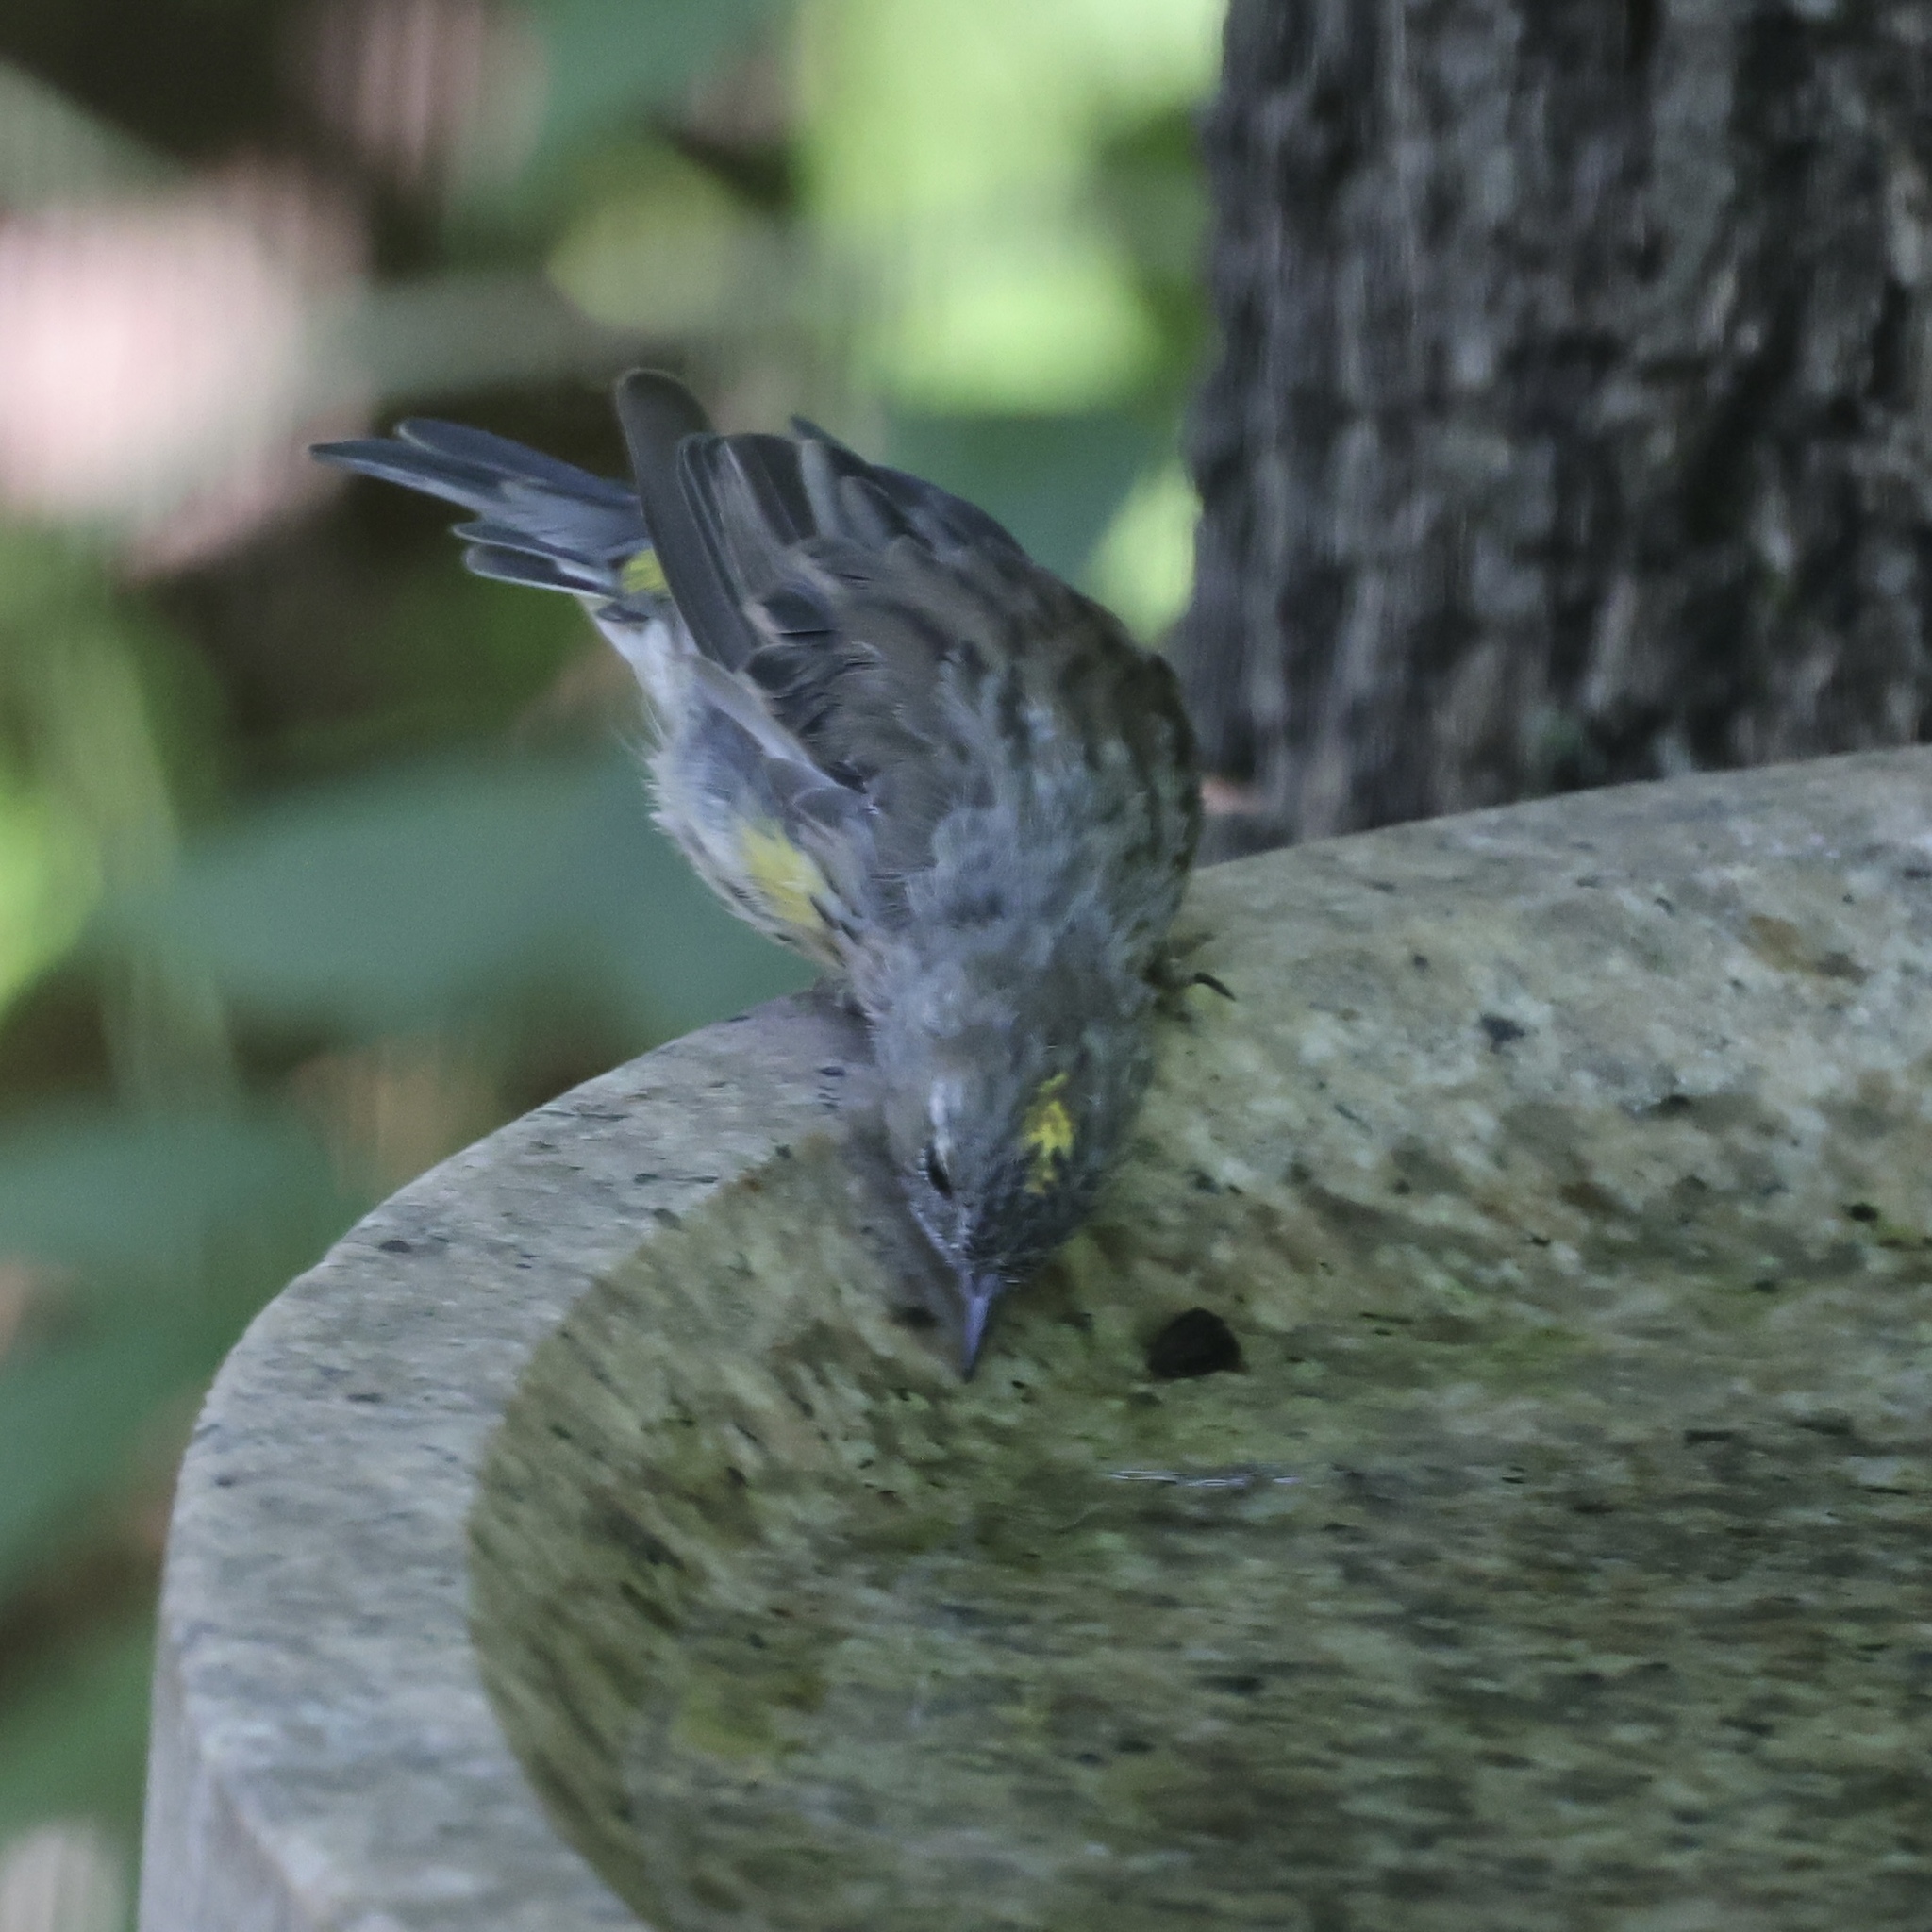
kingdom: Animalia
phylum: Chordata
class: Aves
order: Passeriformes
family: Parulidae
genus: Setophaga
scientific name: Setophaga coronata
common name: Myrtle warbler
